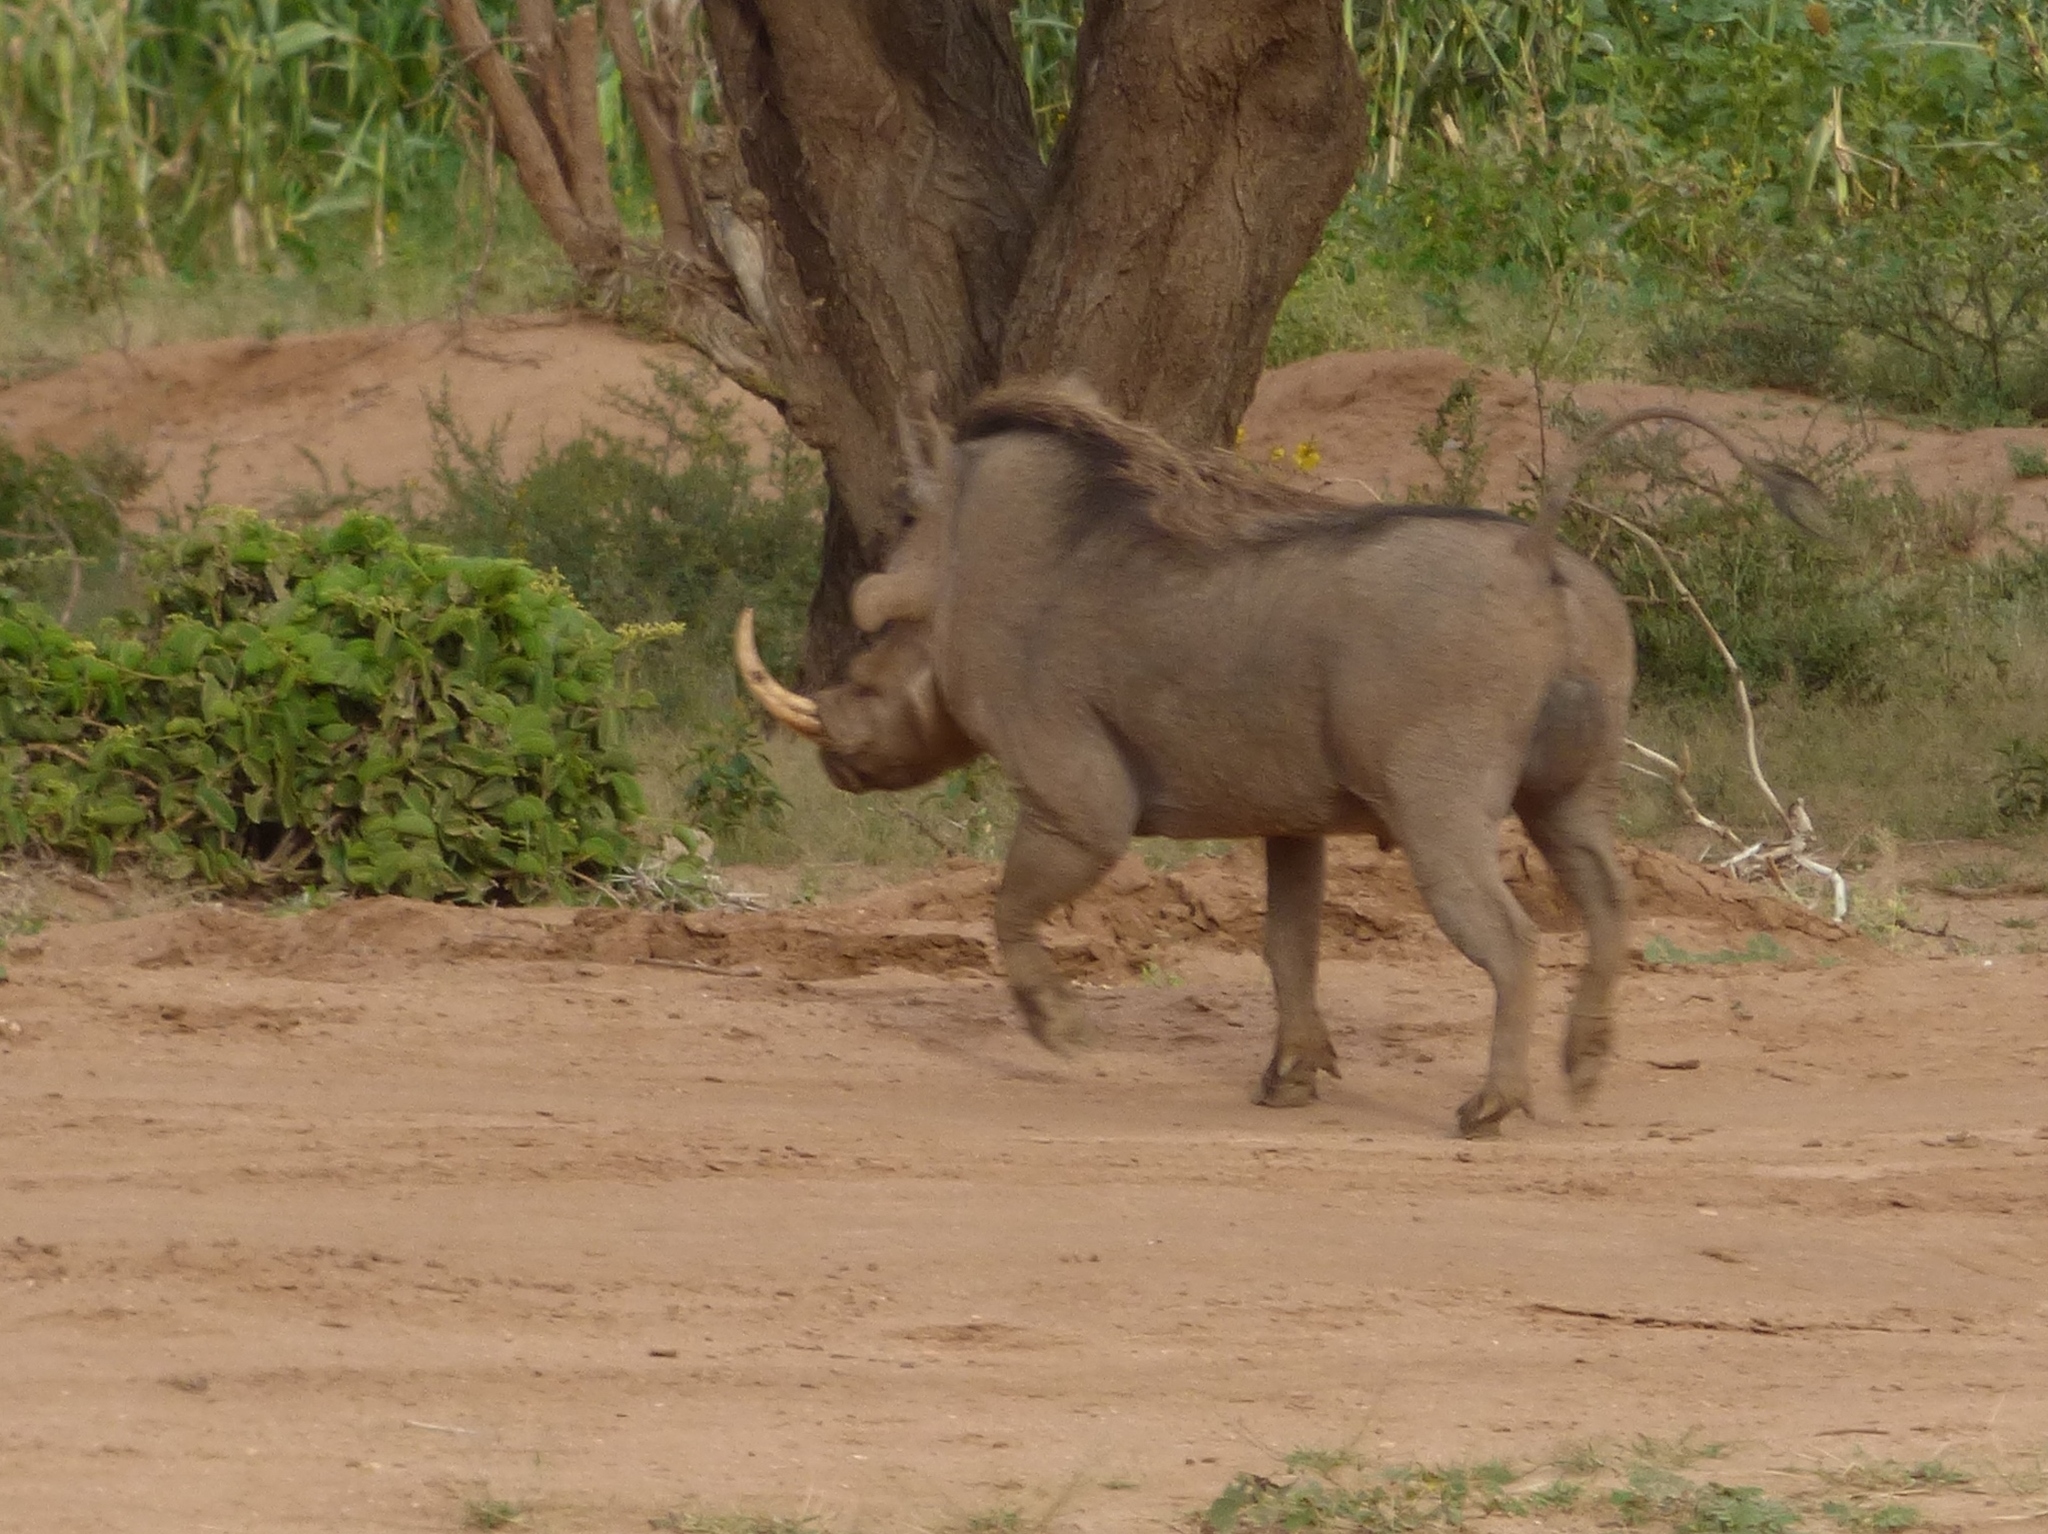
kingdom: Animalia
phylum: Chordata
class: Mammalia
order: Artiodactyla
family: Suidae
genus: Phacochoerus
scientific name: Phacochoerus aethiopicus
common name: Desert warthog
